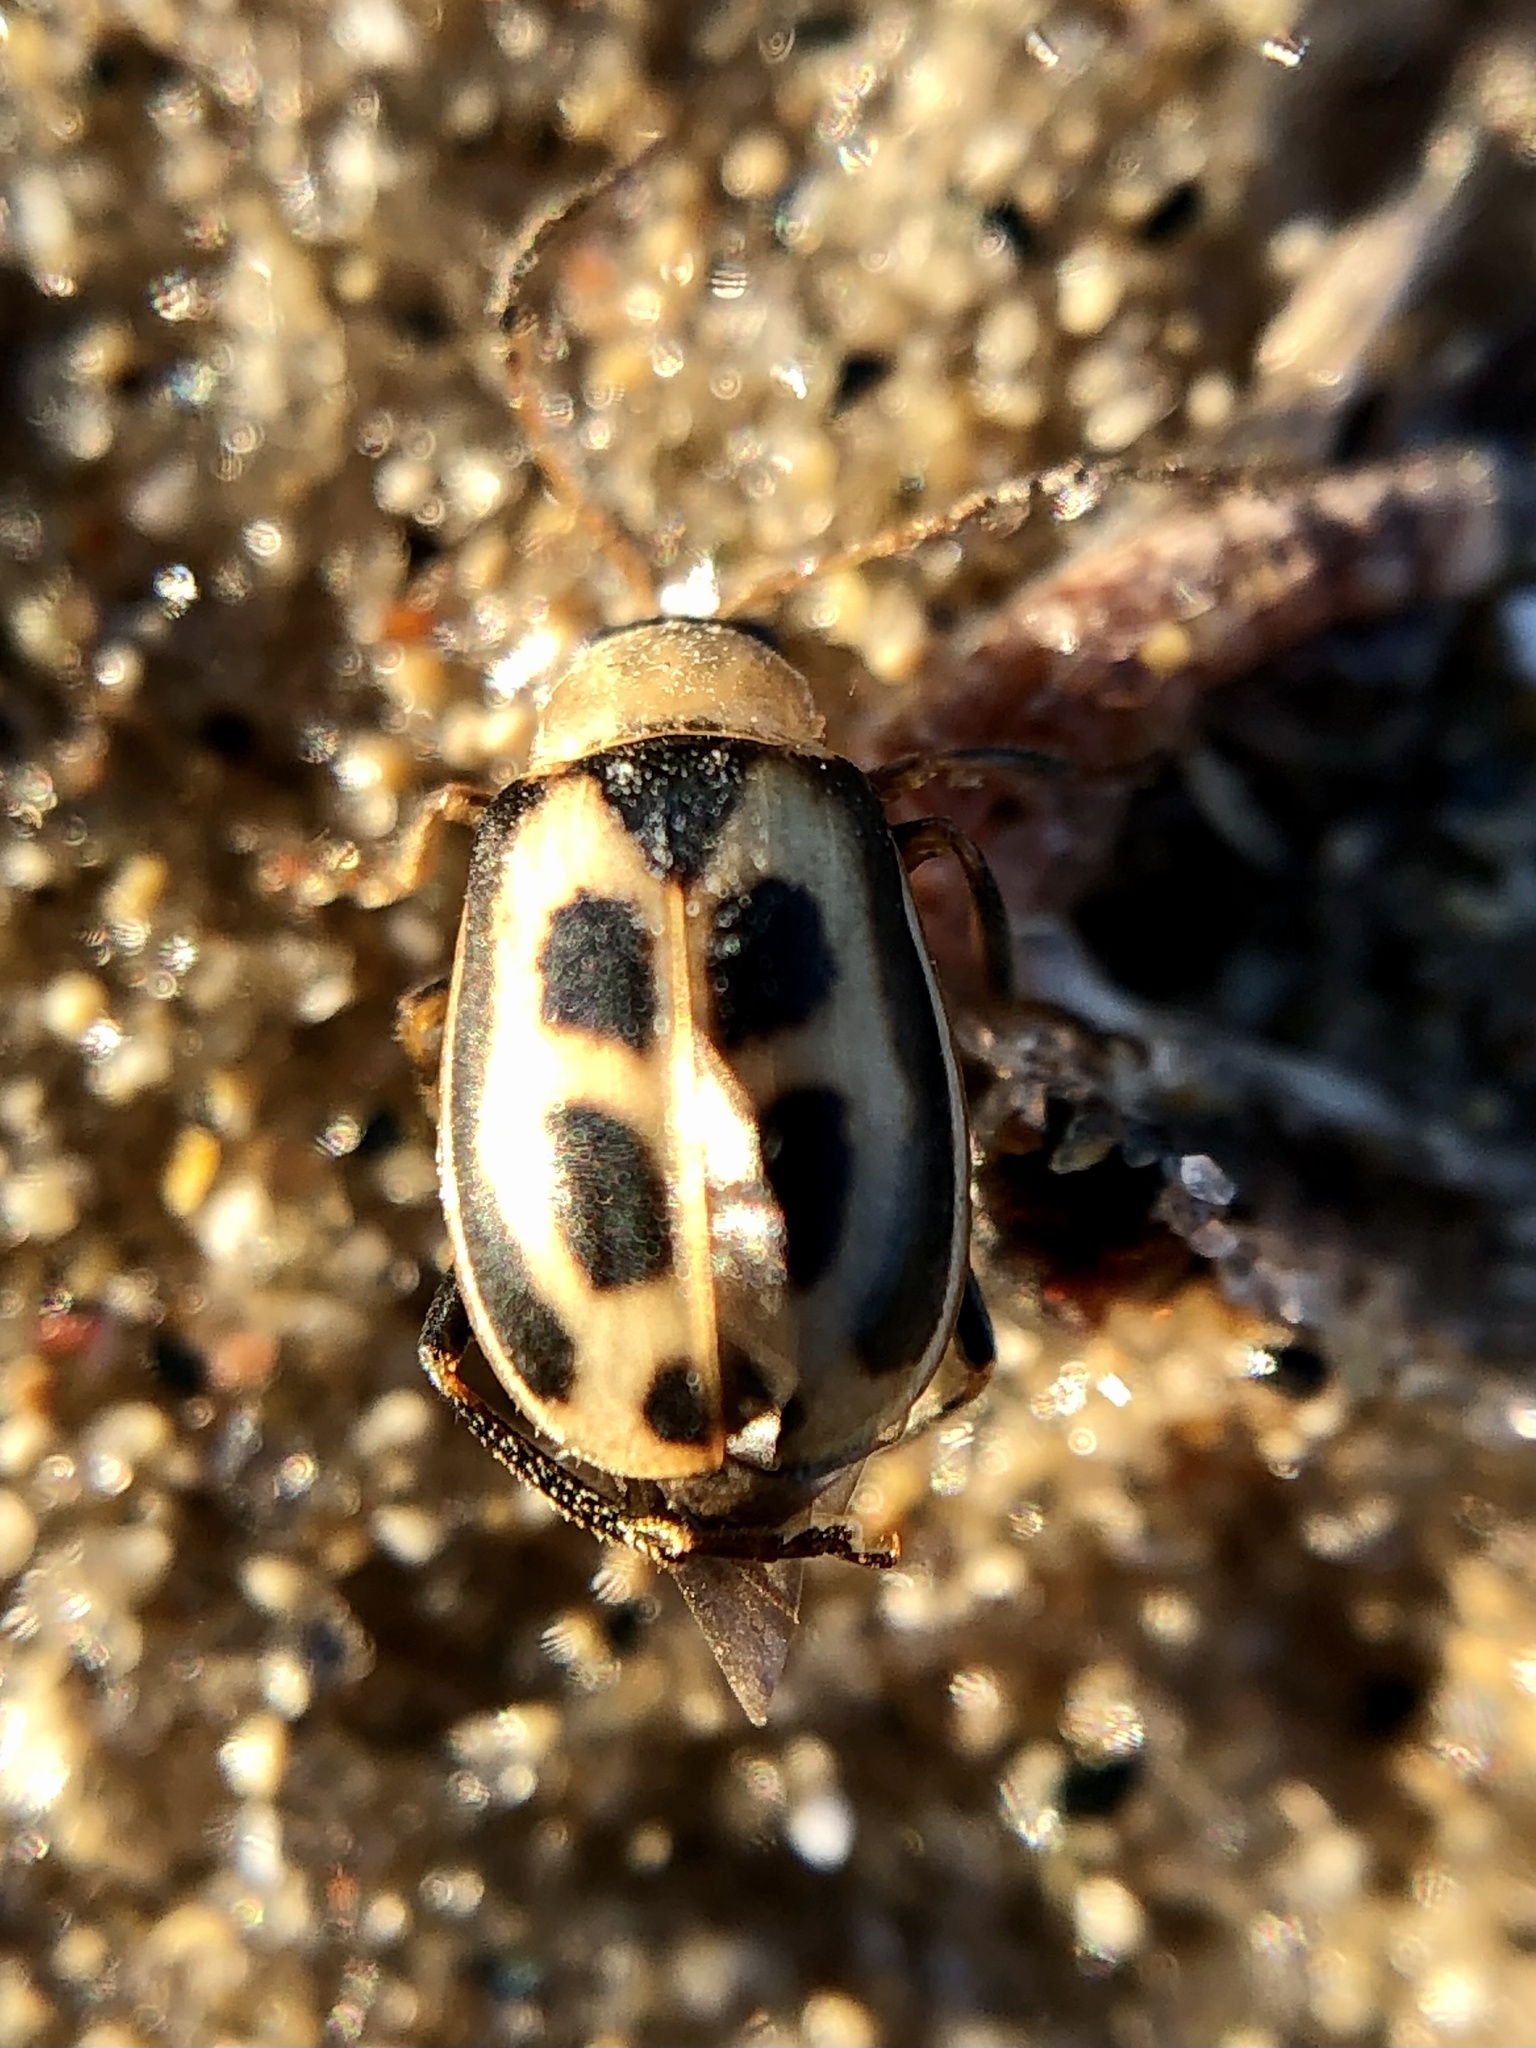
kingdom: Animalia
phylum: Arthropoda
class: Insecta
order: Coleoptera
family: Chrysomelidae
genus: Cerotoma
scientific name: Cerotoma trifurcata
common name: Bean leaf beetle
